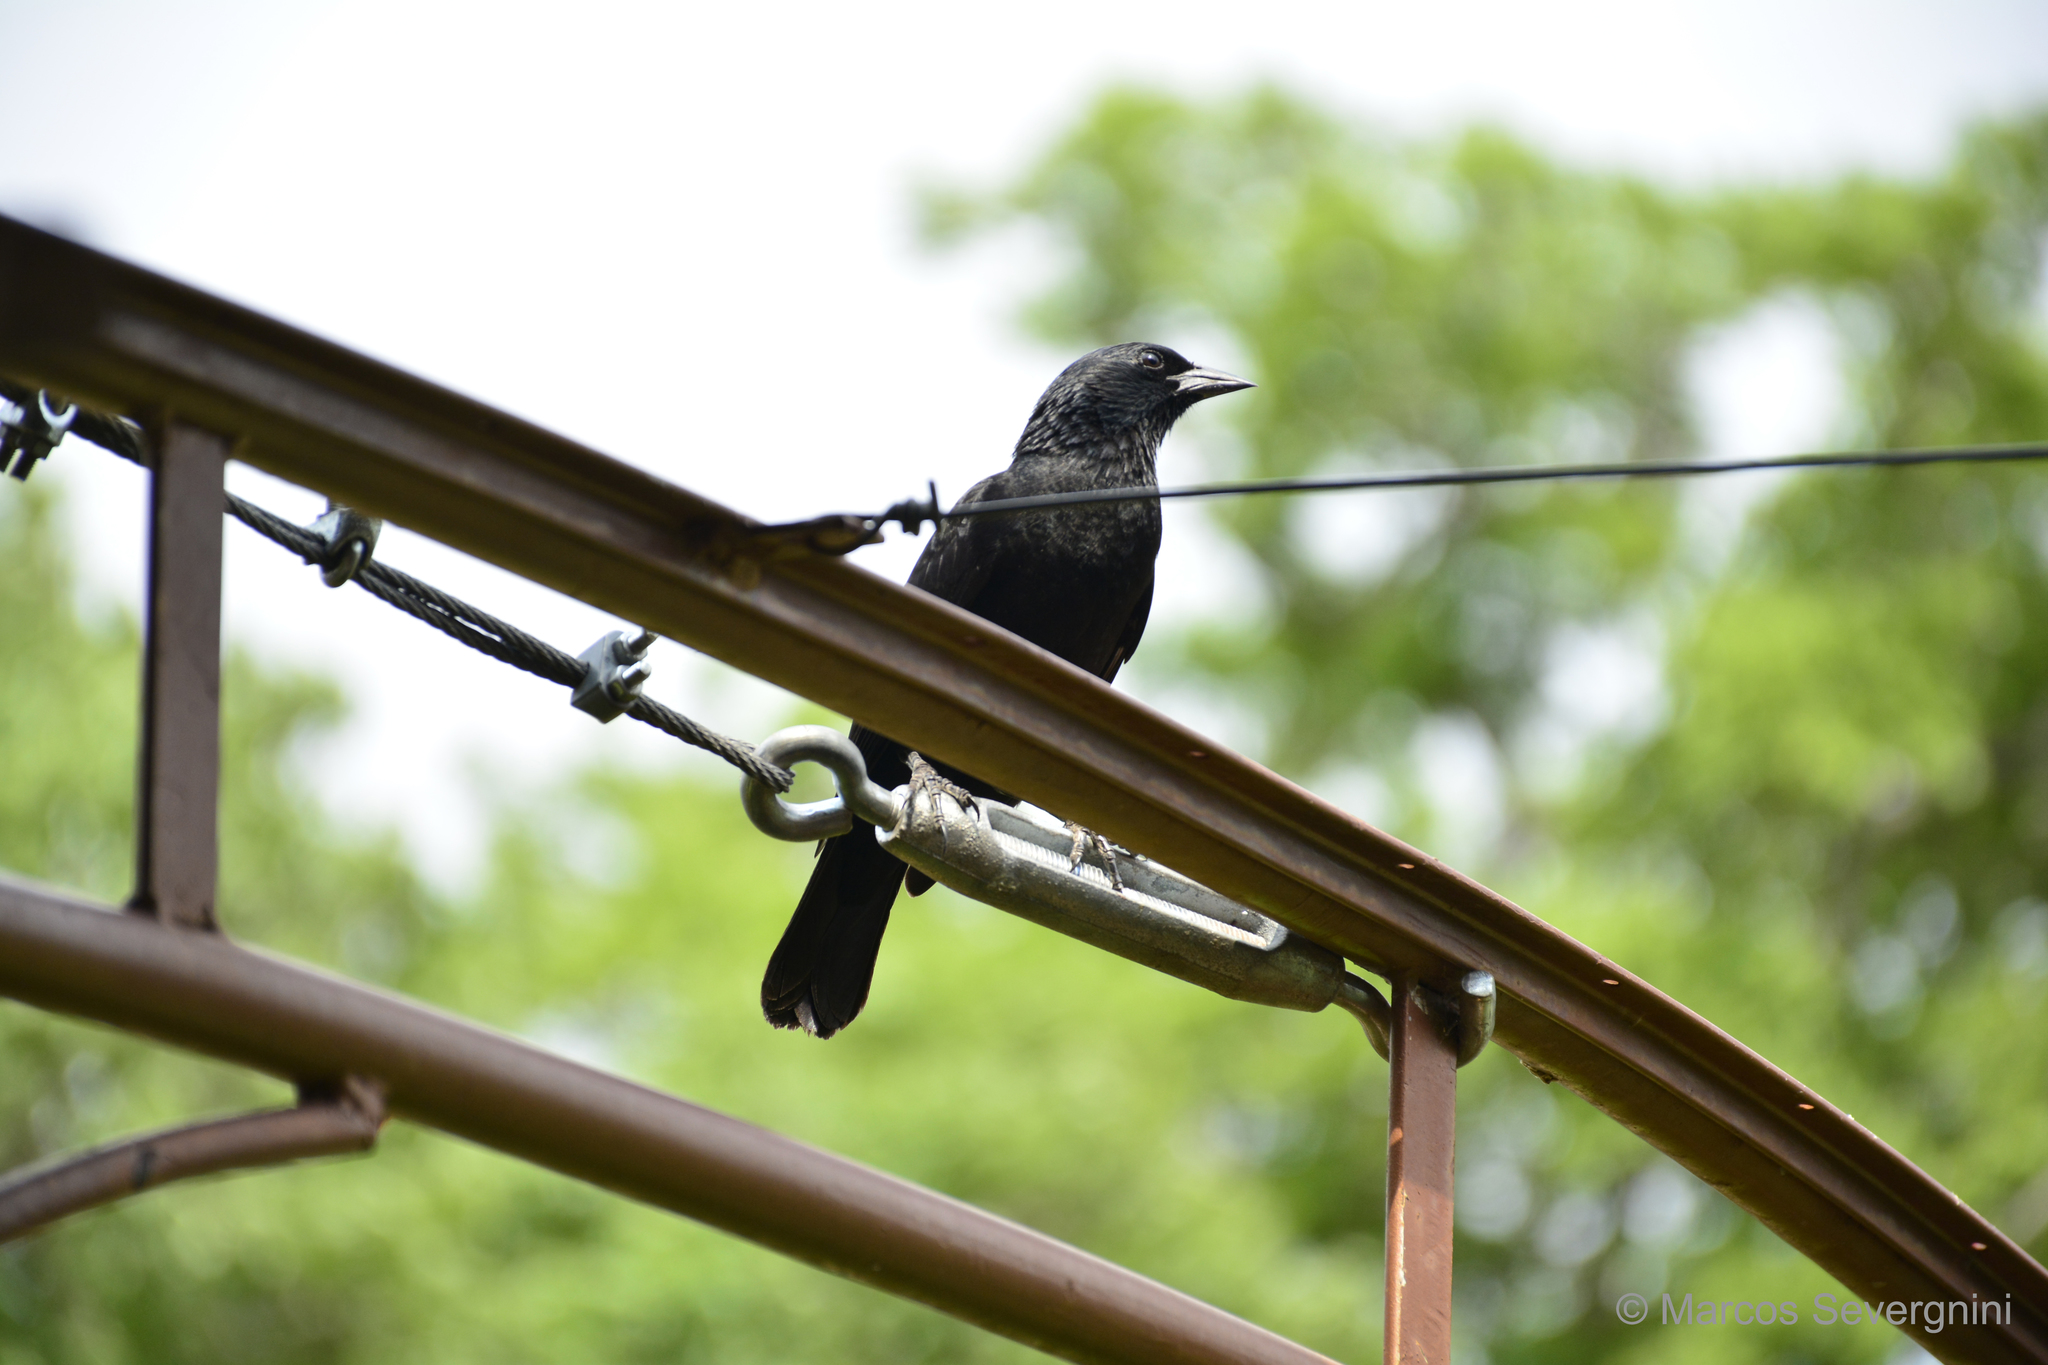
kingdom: Animalia
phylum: Chordata
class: Aves
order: Passeriformes
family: Icteridae
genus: Gnorimopsar
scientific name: Gnorimopsar chopi
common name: Chopi blackbird
